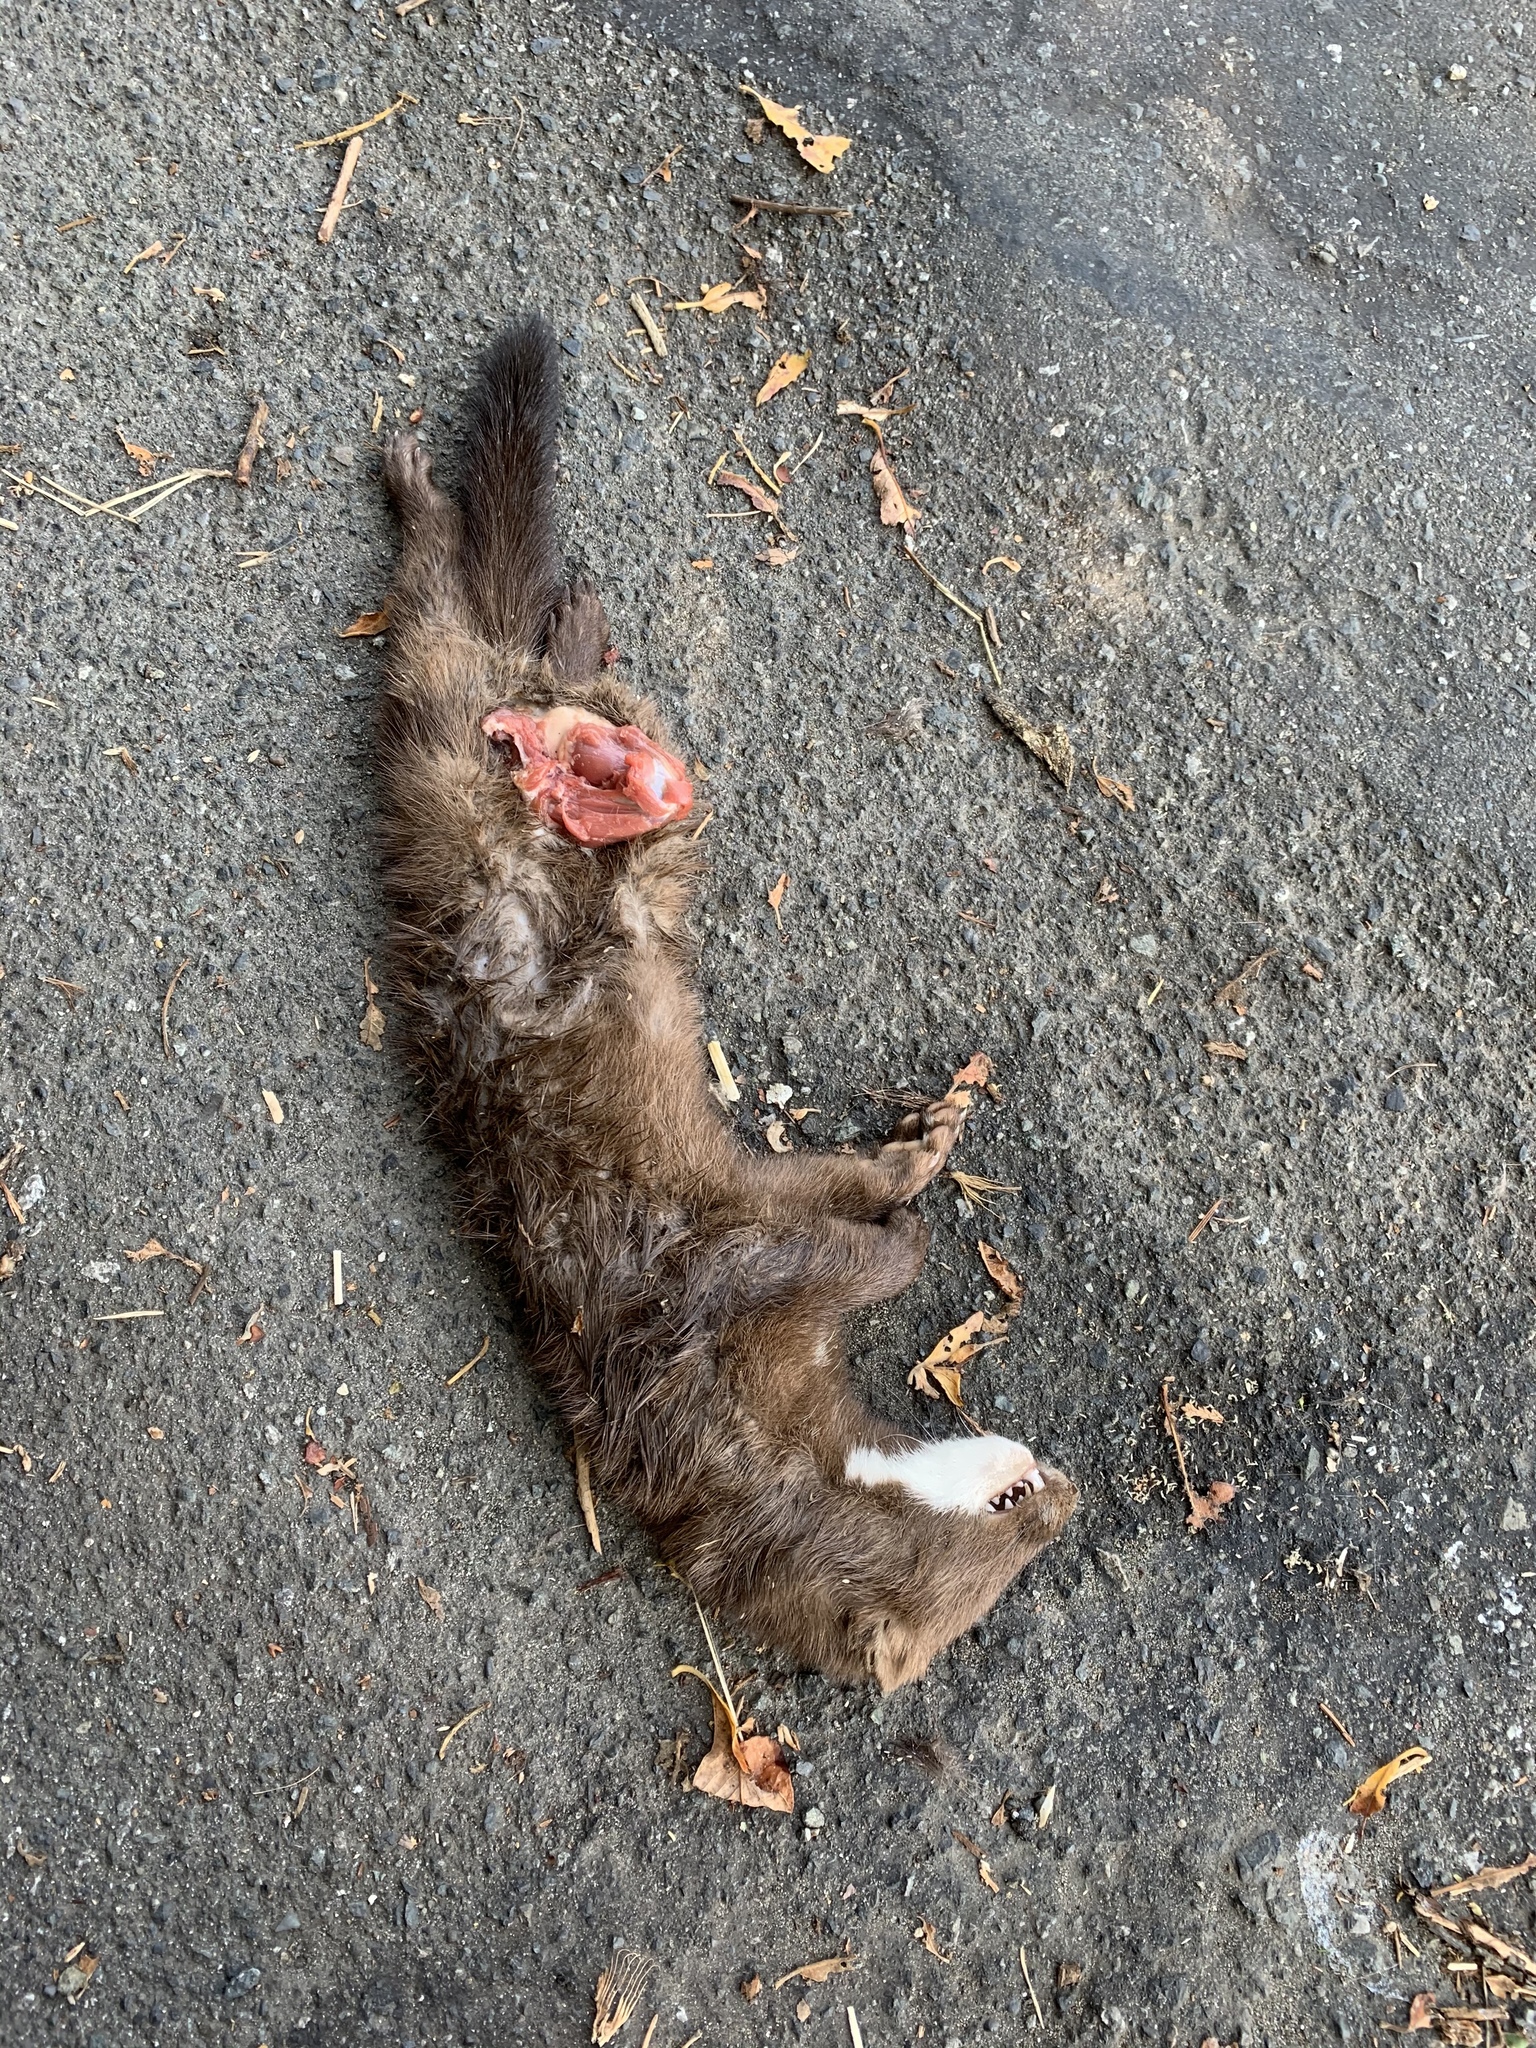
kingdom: Animalia
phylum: Chordata
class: Mammalia
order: Carnivora
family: Mustelidae
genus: Mustela
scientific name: Mustela
